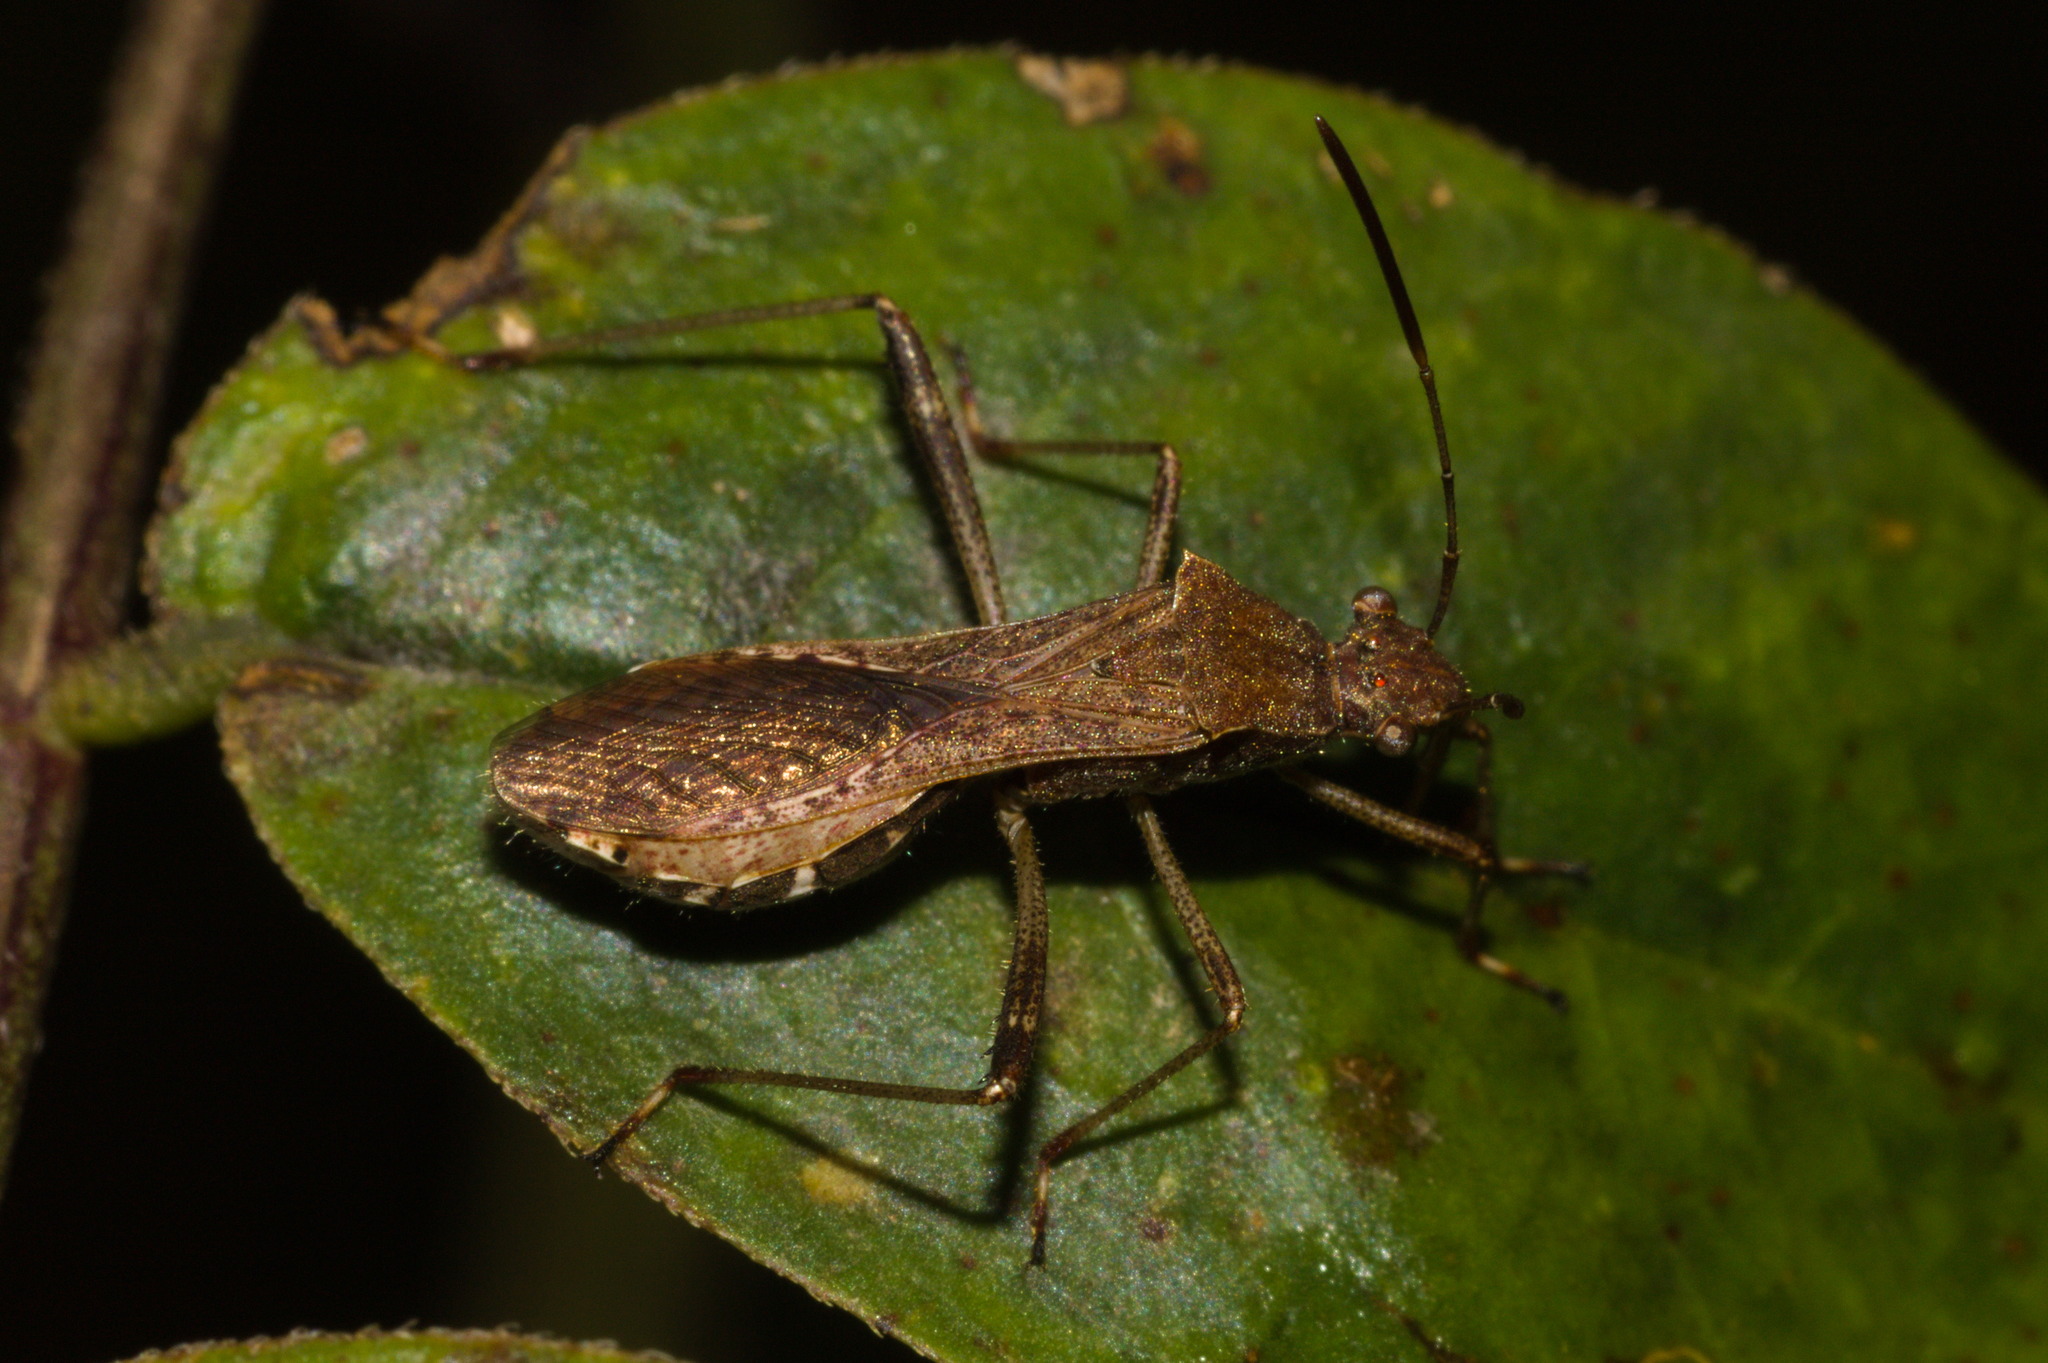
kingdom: Animalia
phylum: Arthropoda
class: Insecta
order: Hemiptera
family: Alydidae
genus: Neomegalotomus
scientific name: Neomegalotomus parvus
